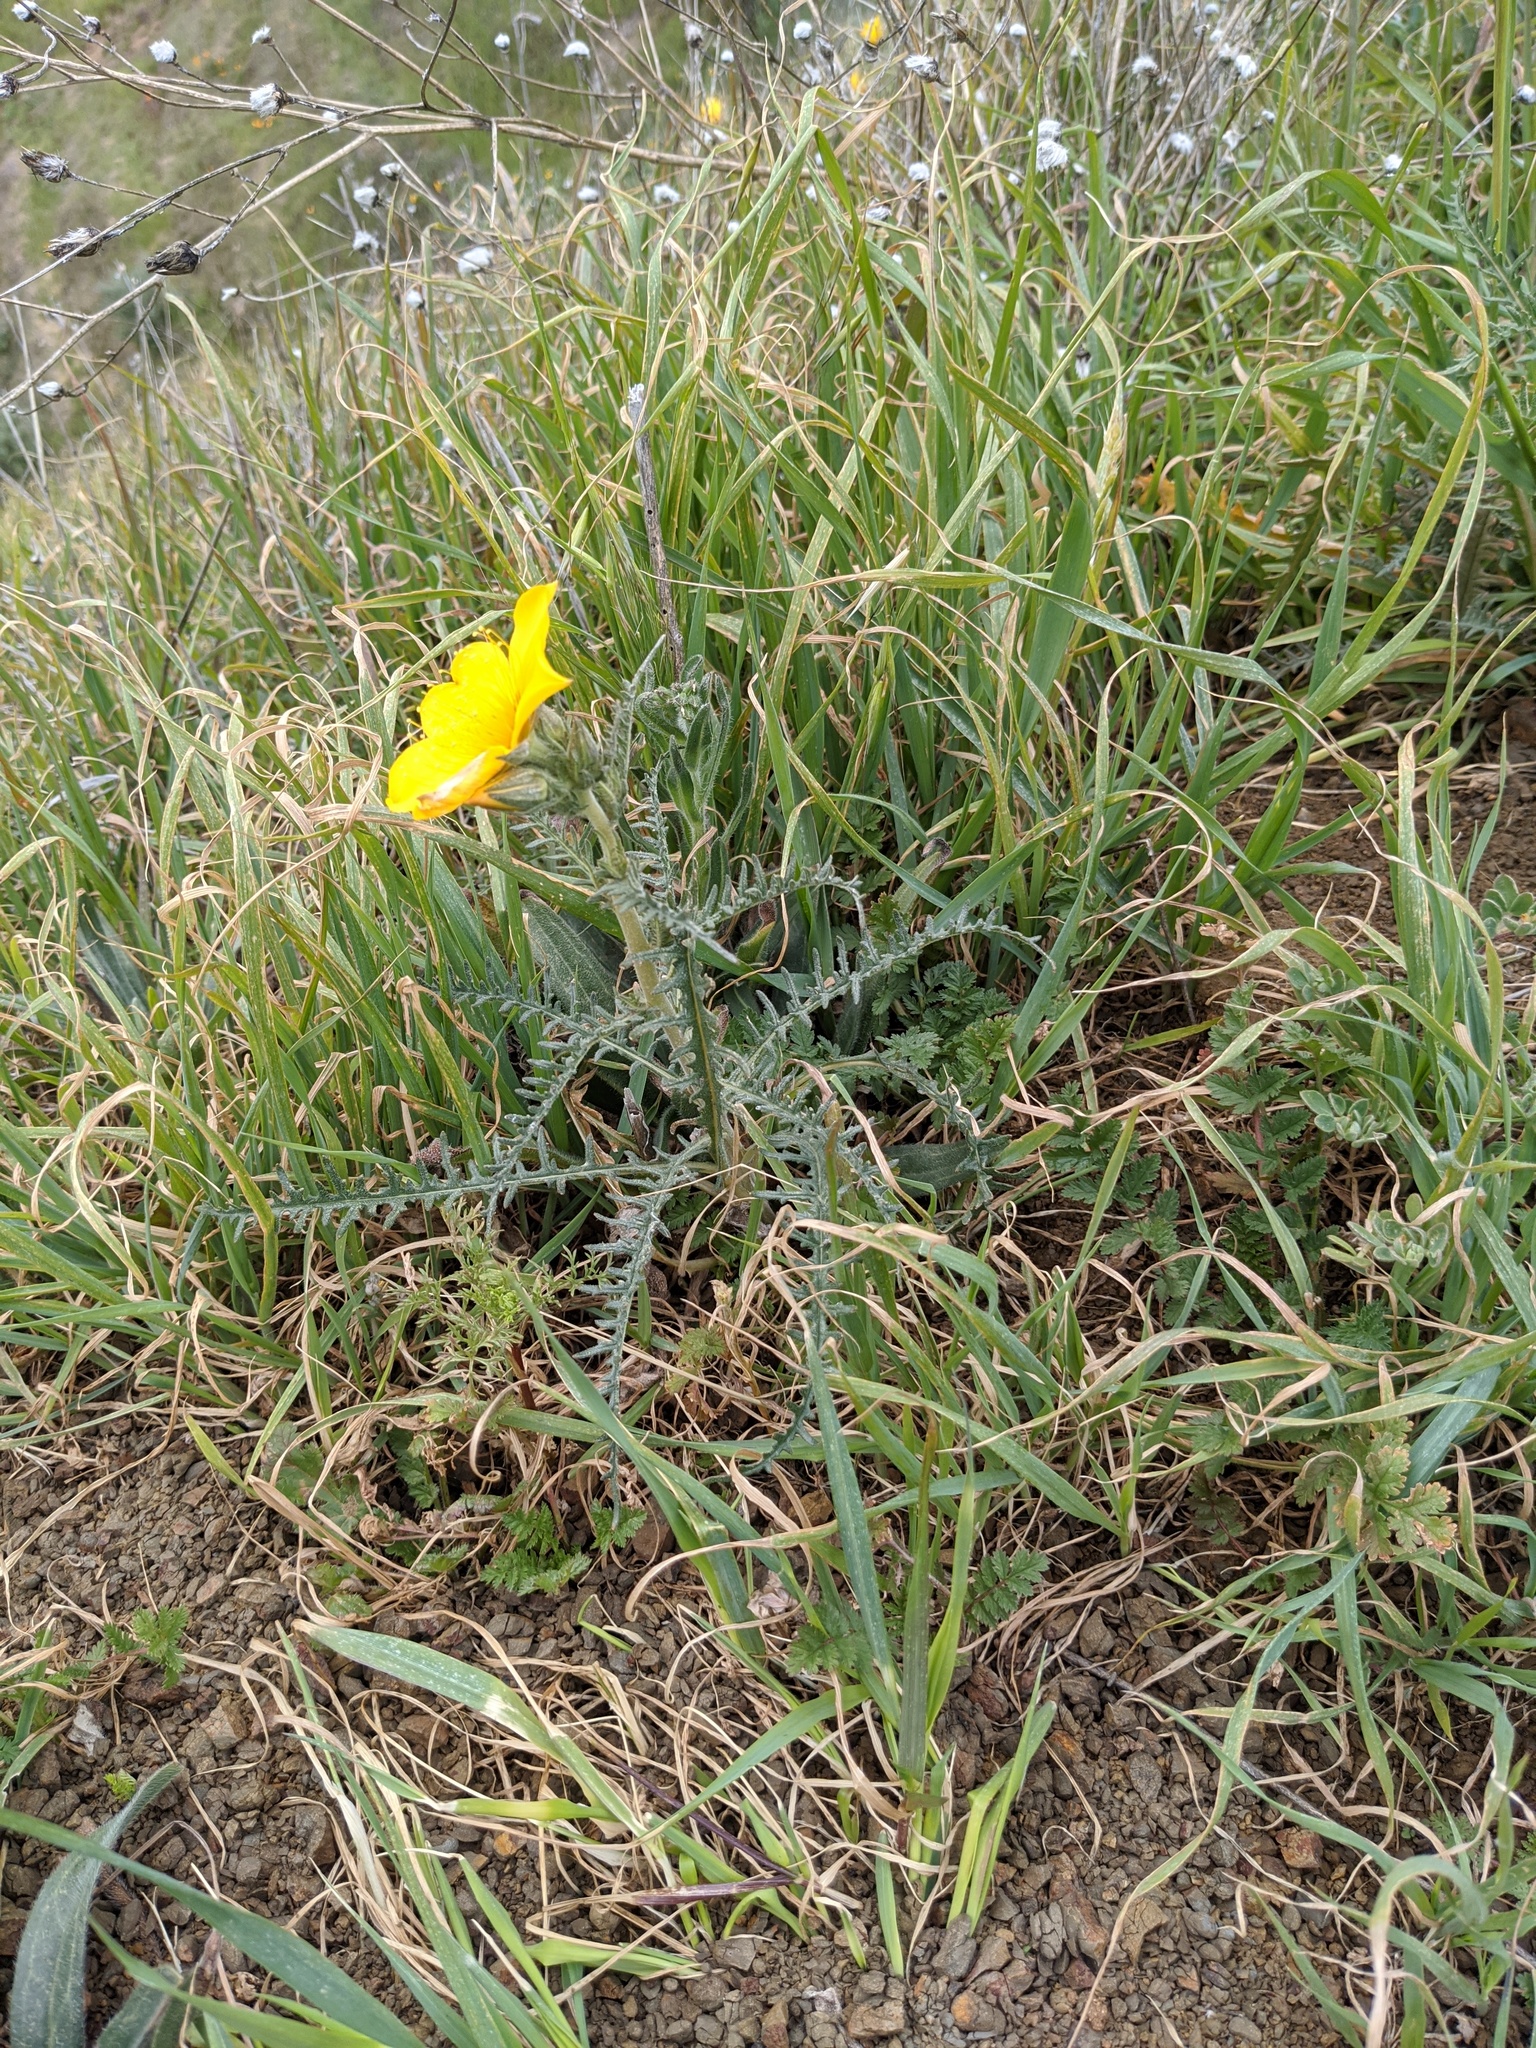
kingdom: Plantae
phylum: Tracheophyta
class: Magnoliopsida
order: Cornales
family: Loasaceae
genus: Mentzelia
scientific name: Mentzelia lindleyi
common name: Golden bartonia
